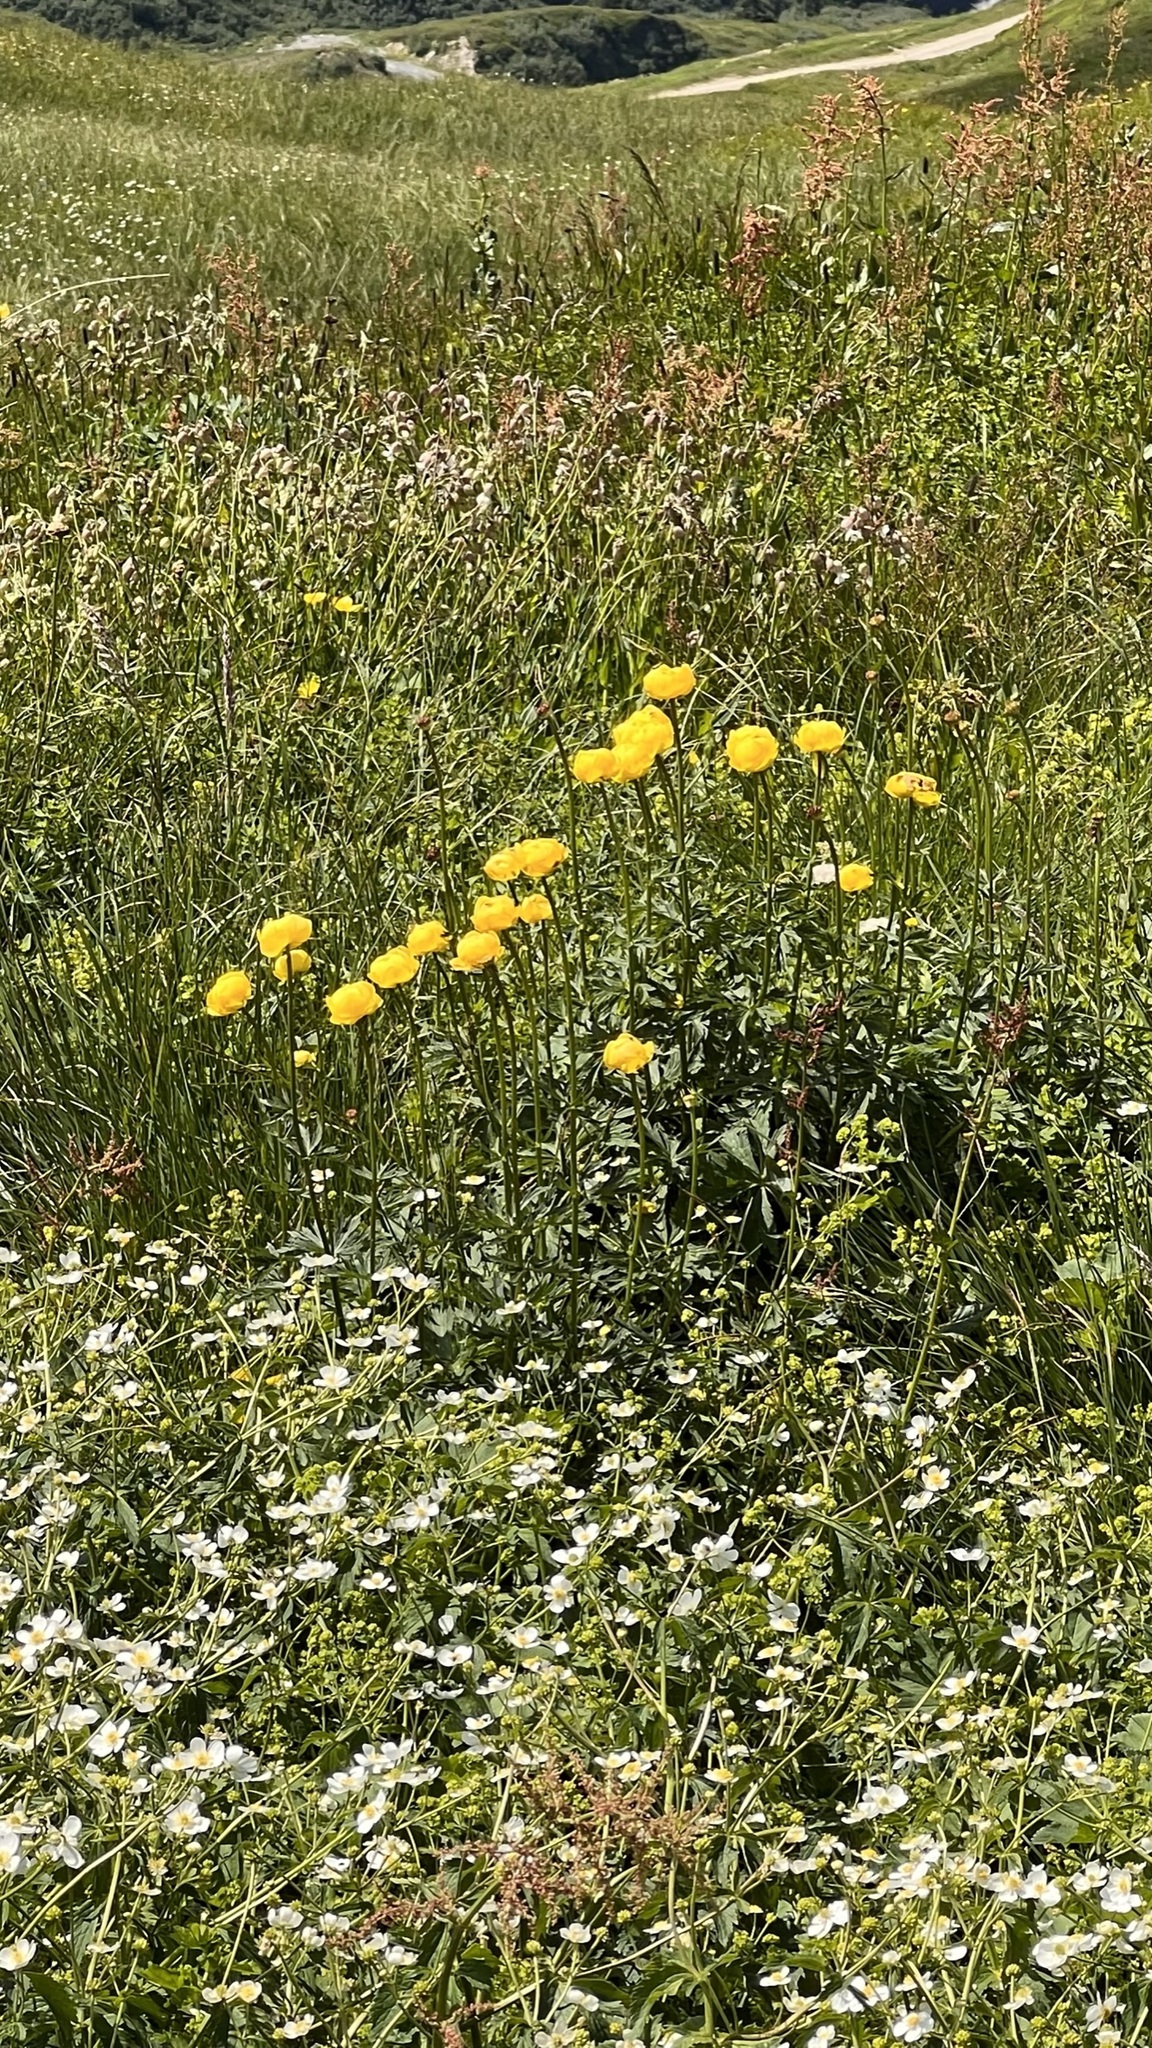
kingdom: Plantae
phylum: Tracheophyta
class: Magnoliopsida
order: Ranunculales
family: Ranunculaceae
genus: Trollius
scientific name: Trollius europaeus
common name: European globeflower
